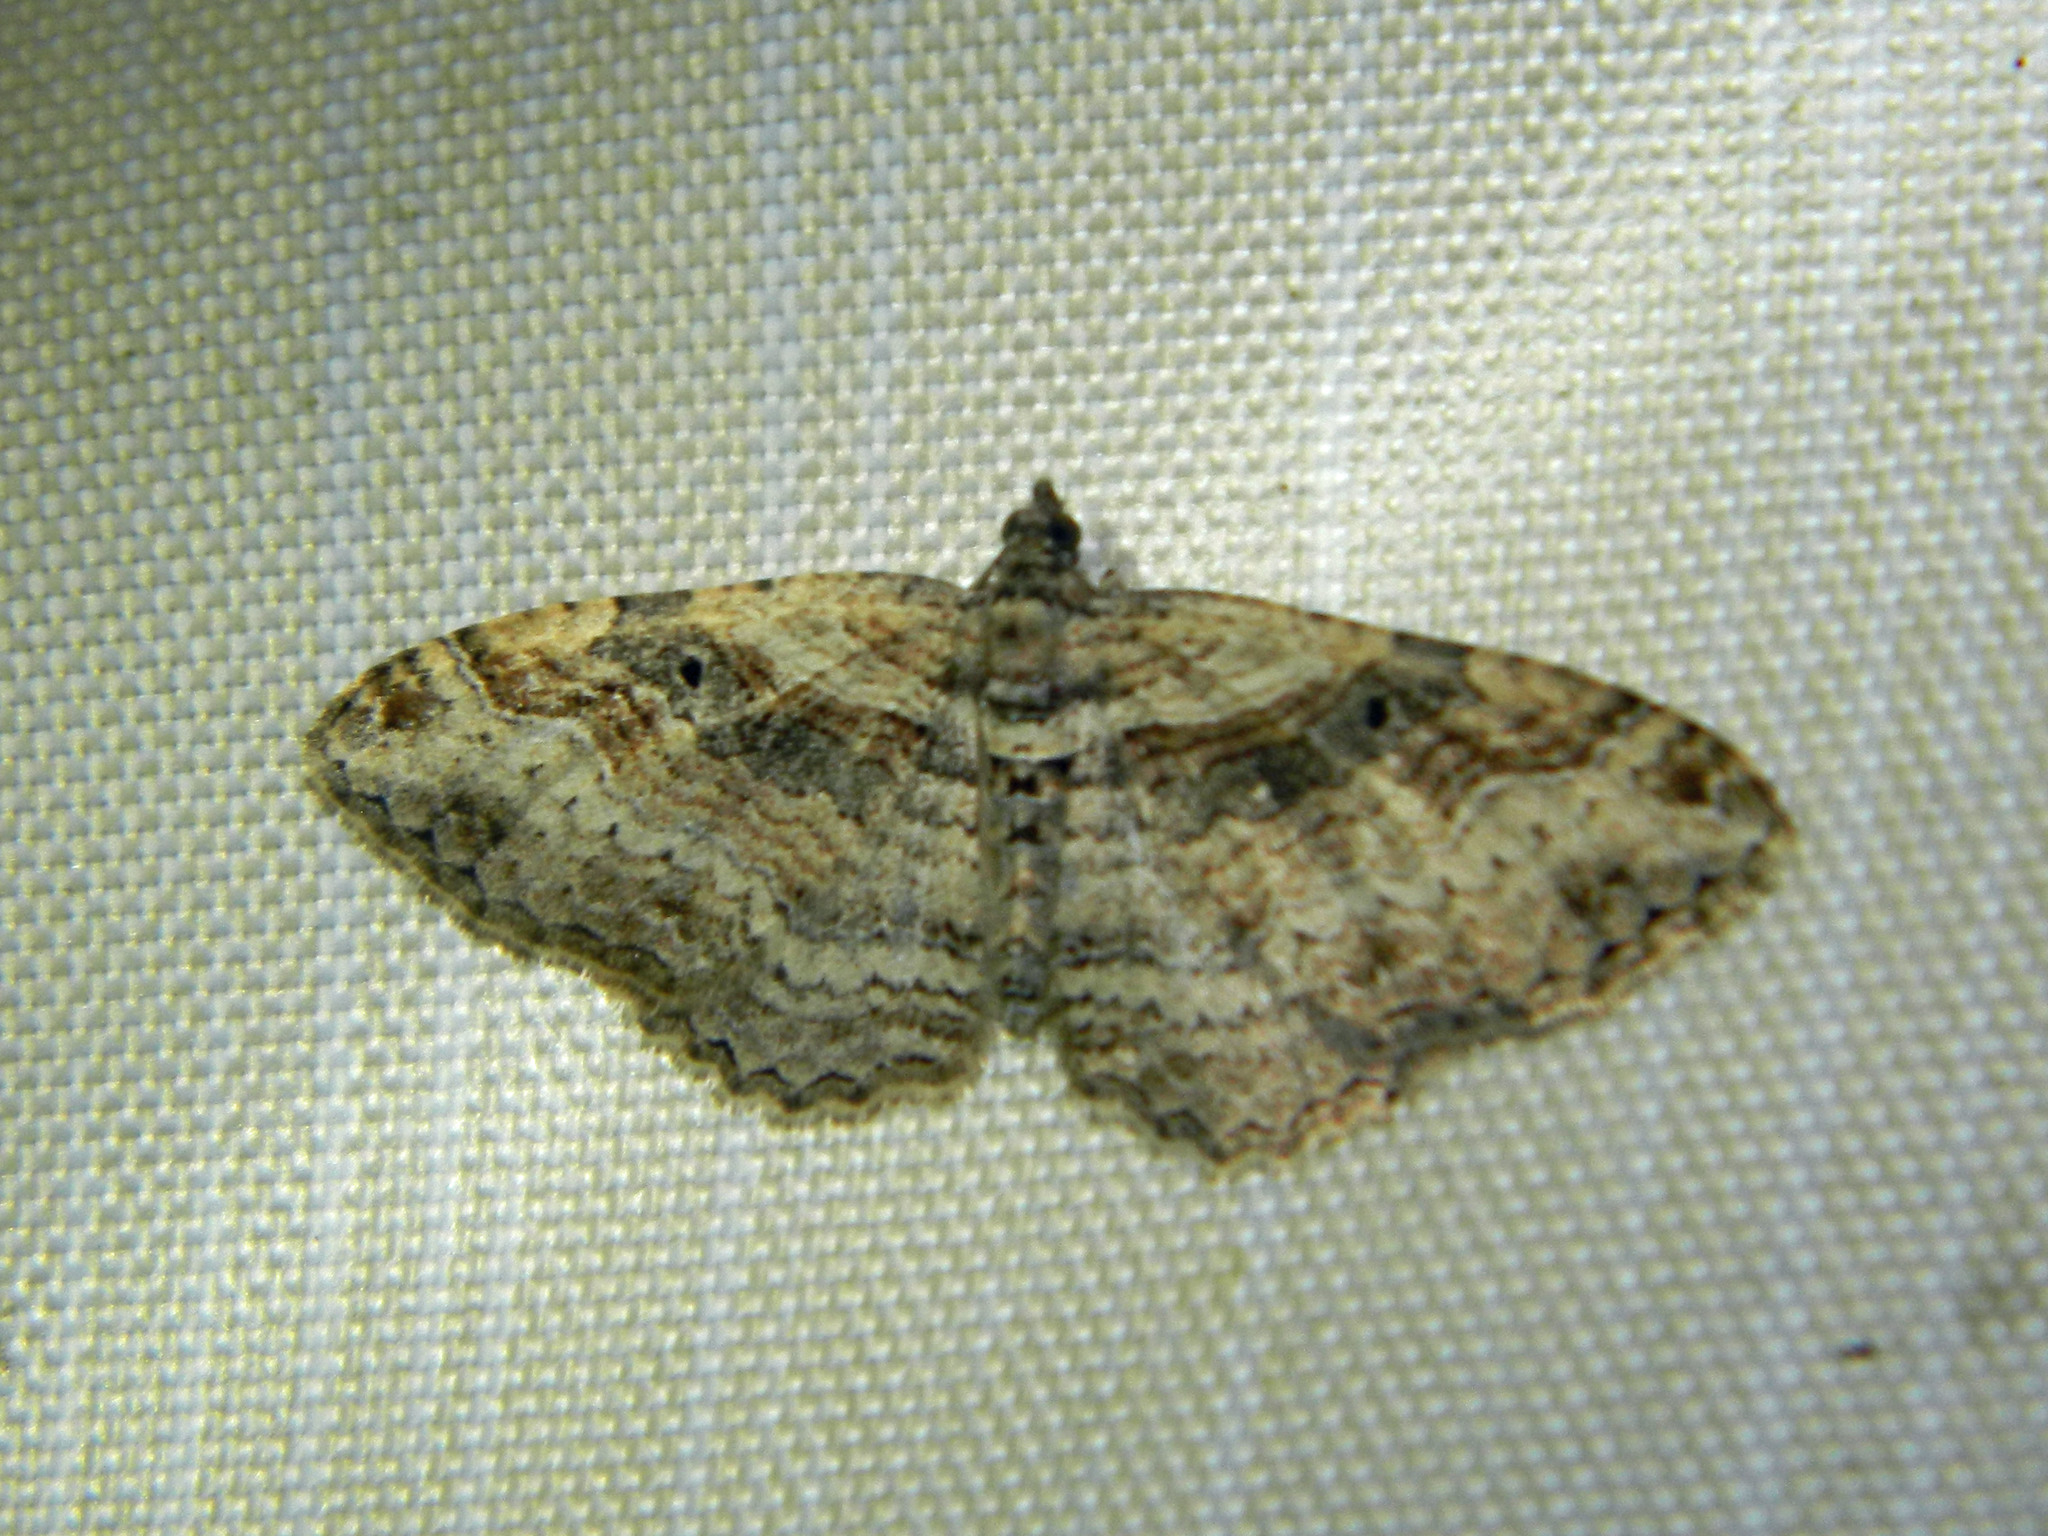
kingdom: Animalia
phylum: Arthropoda
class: Insecta
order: Lepidoptera
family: Geometridae
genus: Costaconvexa
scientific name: Costaconvexa centrostrigaria
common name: Bent-line carpet
